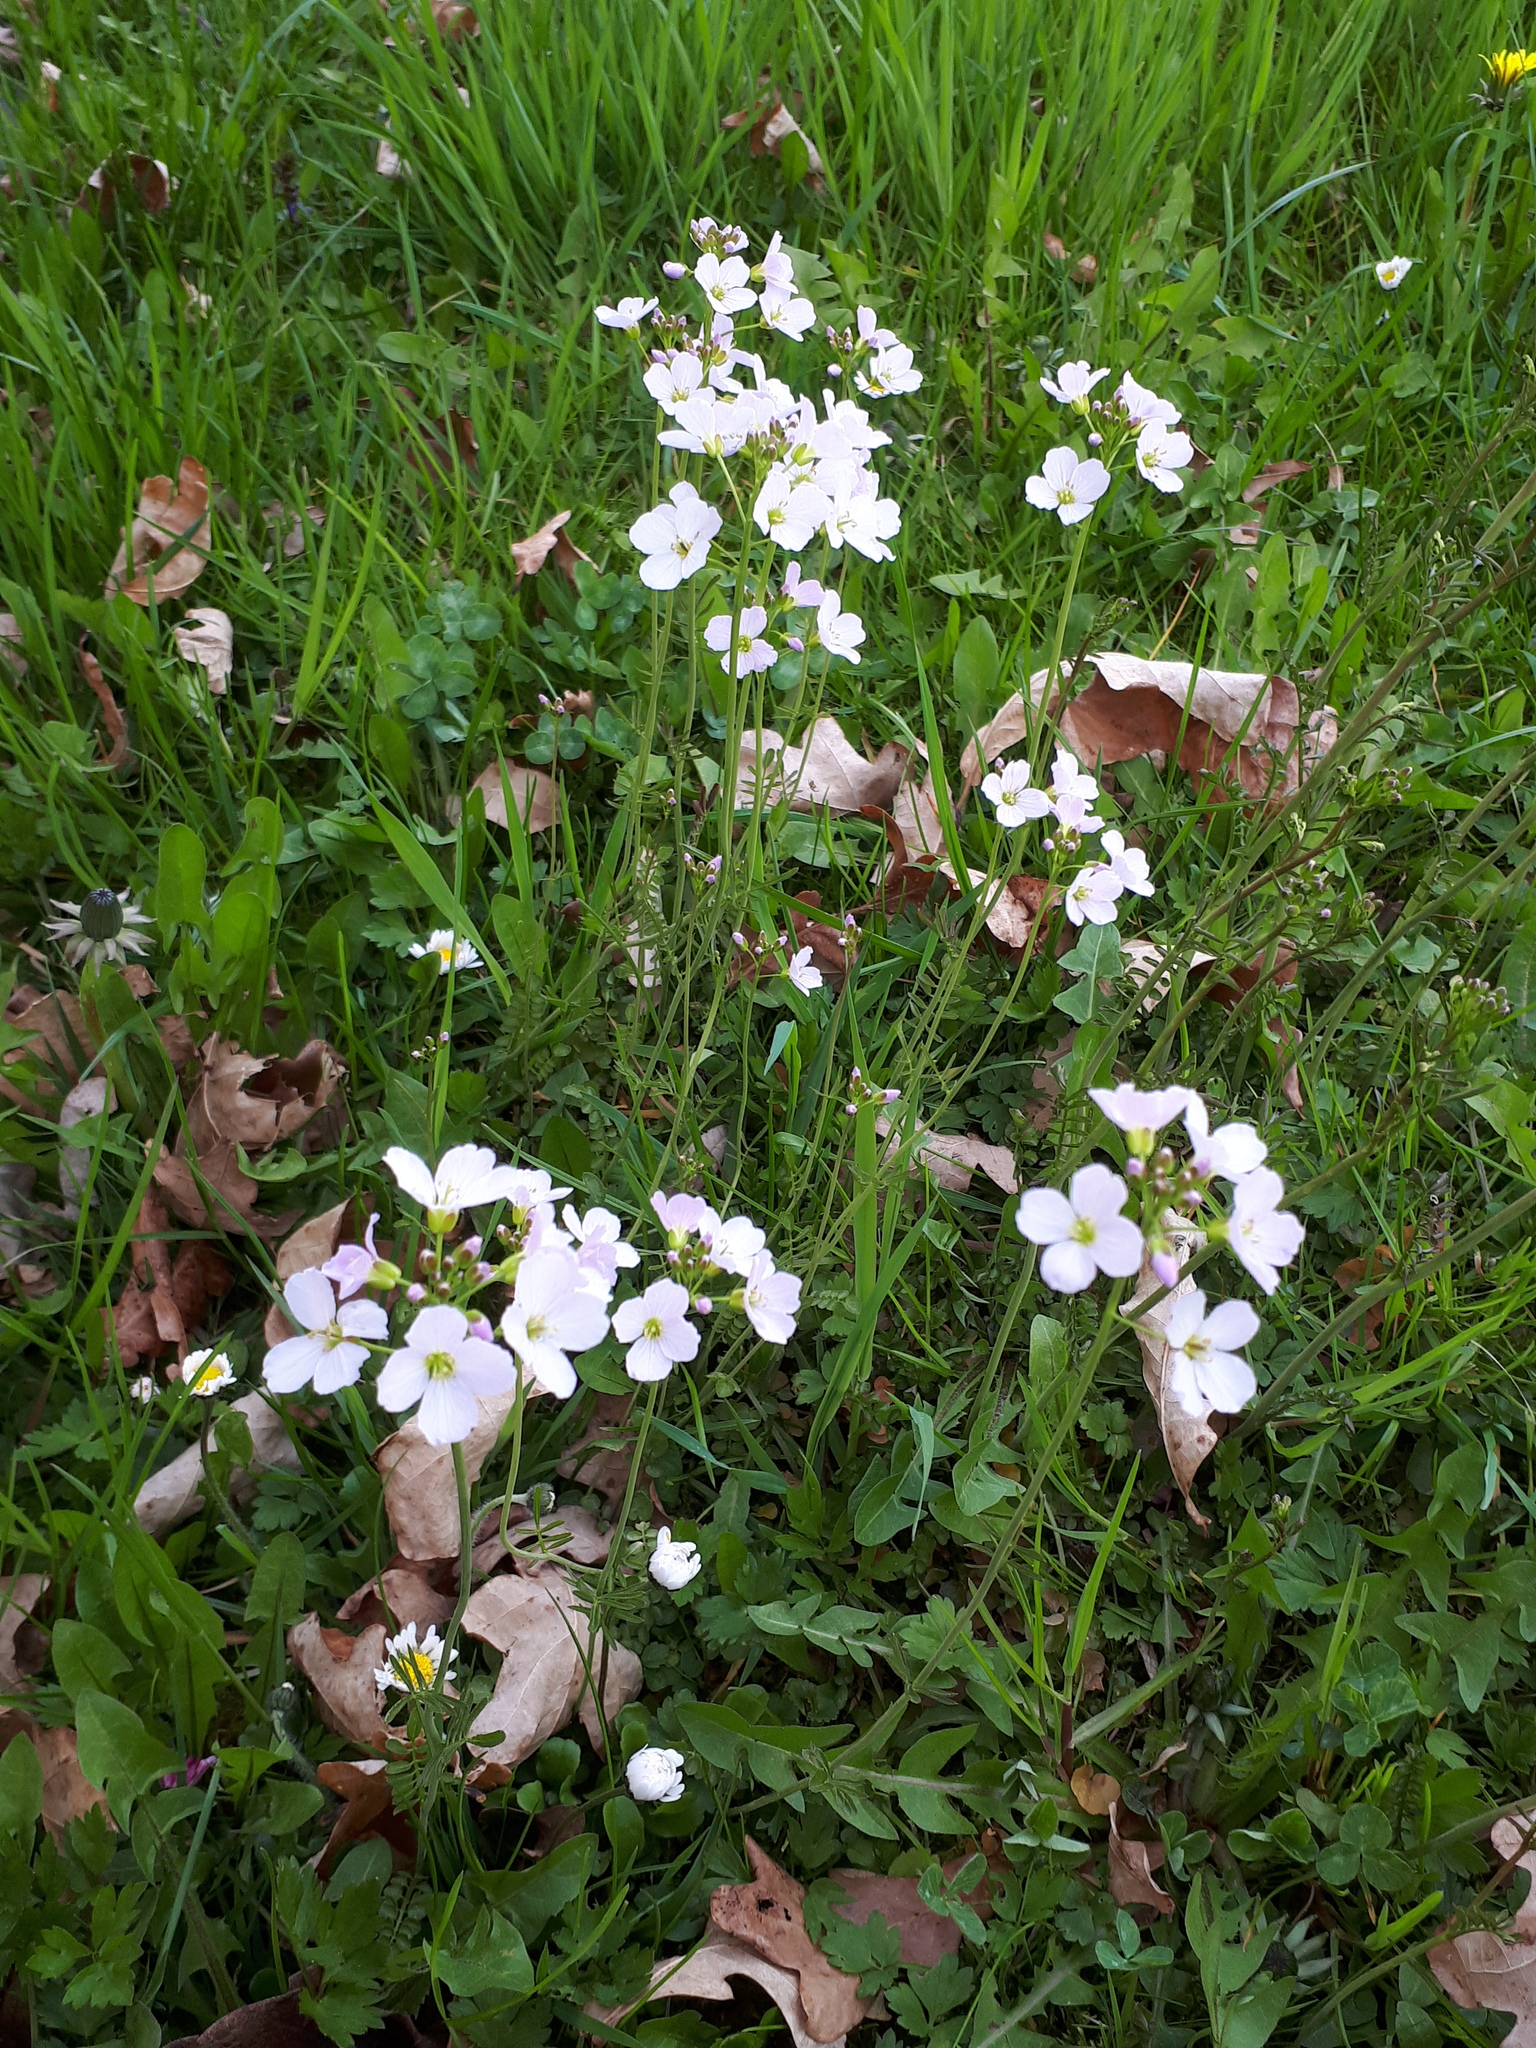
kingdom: Plantae
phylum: Tracheophyta
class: Magnoliopsida
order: Brassicales
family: Brassicaceae
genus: Cardamine
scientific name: Cardamine pratensis
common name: Cuckoo flower
